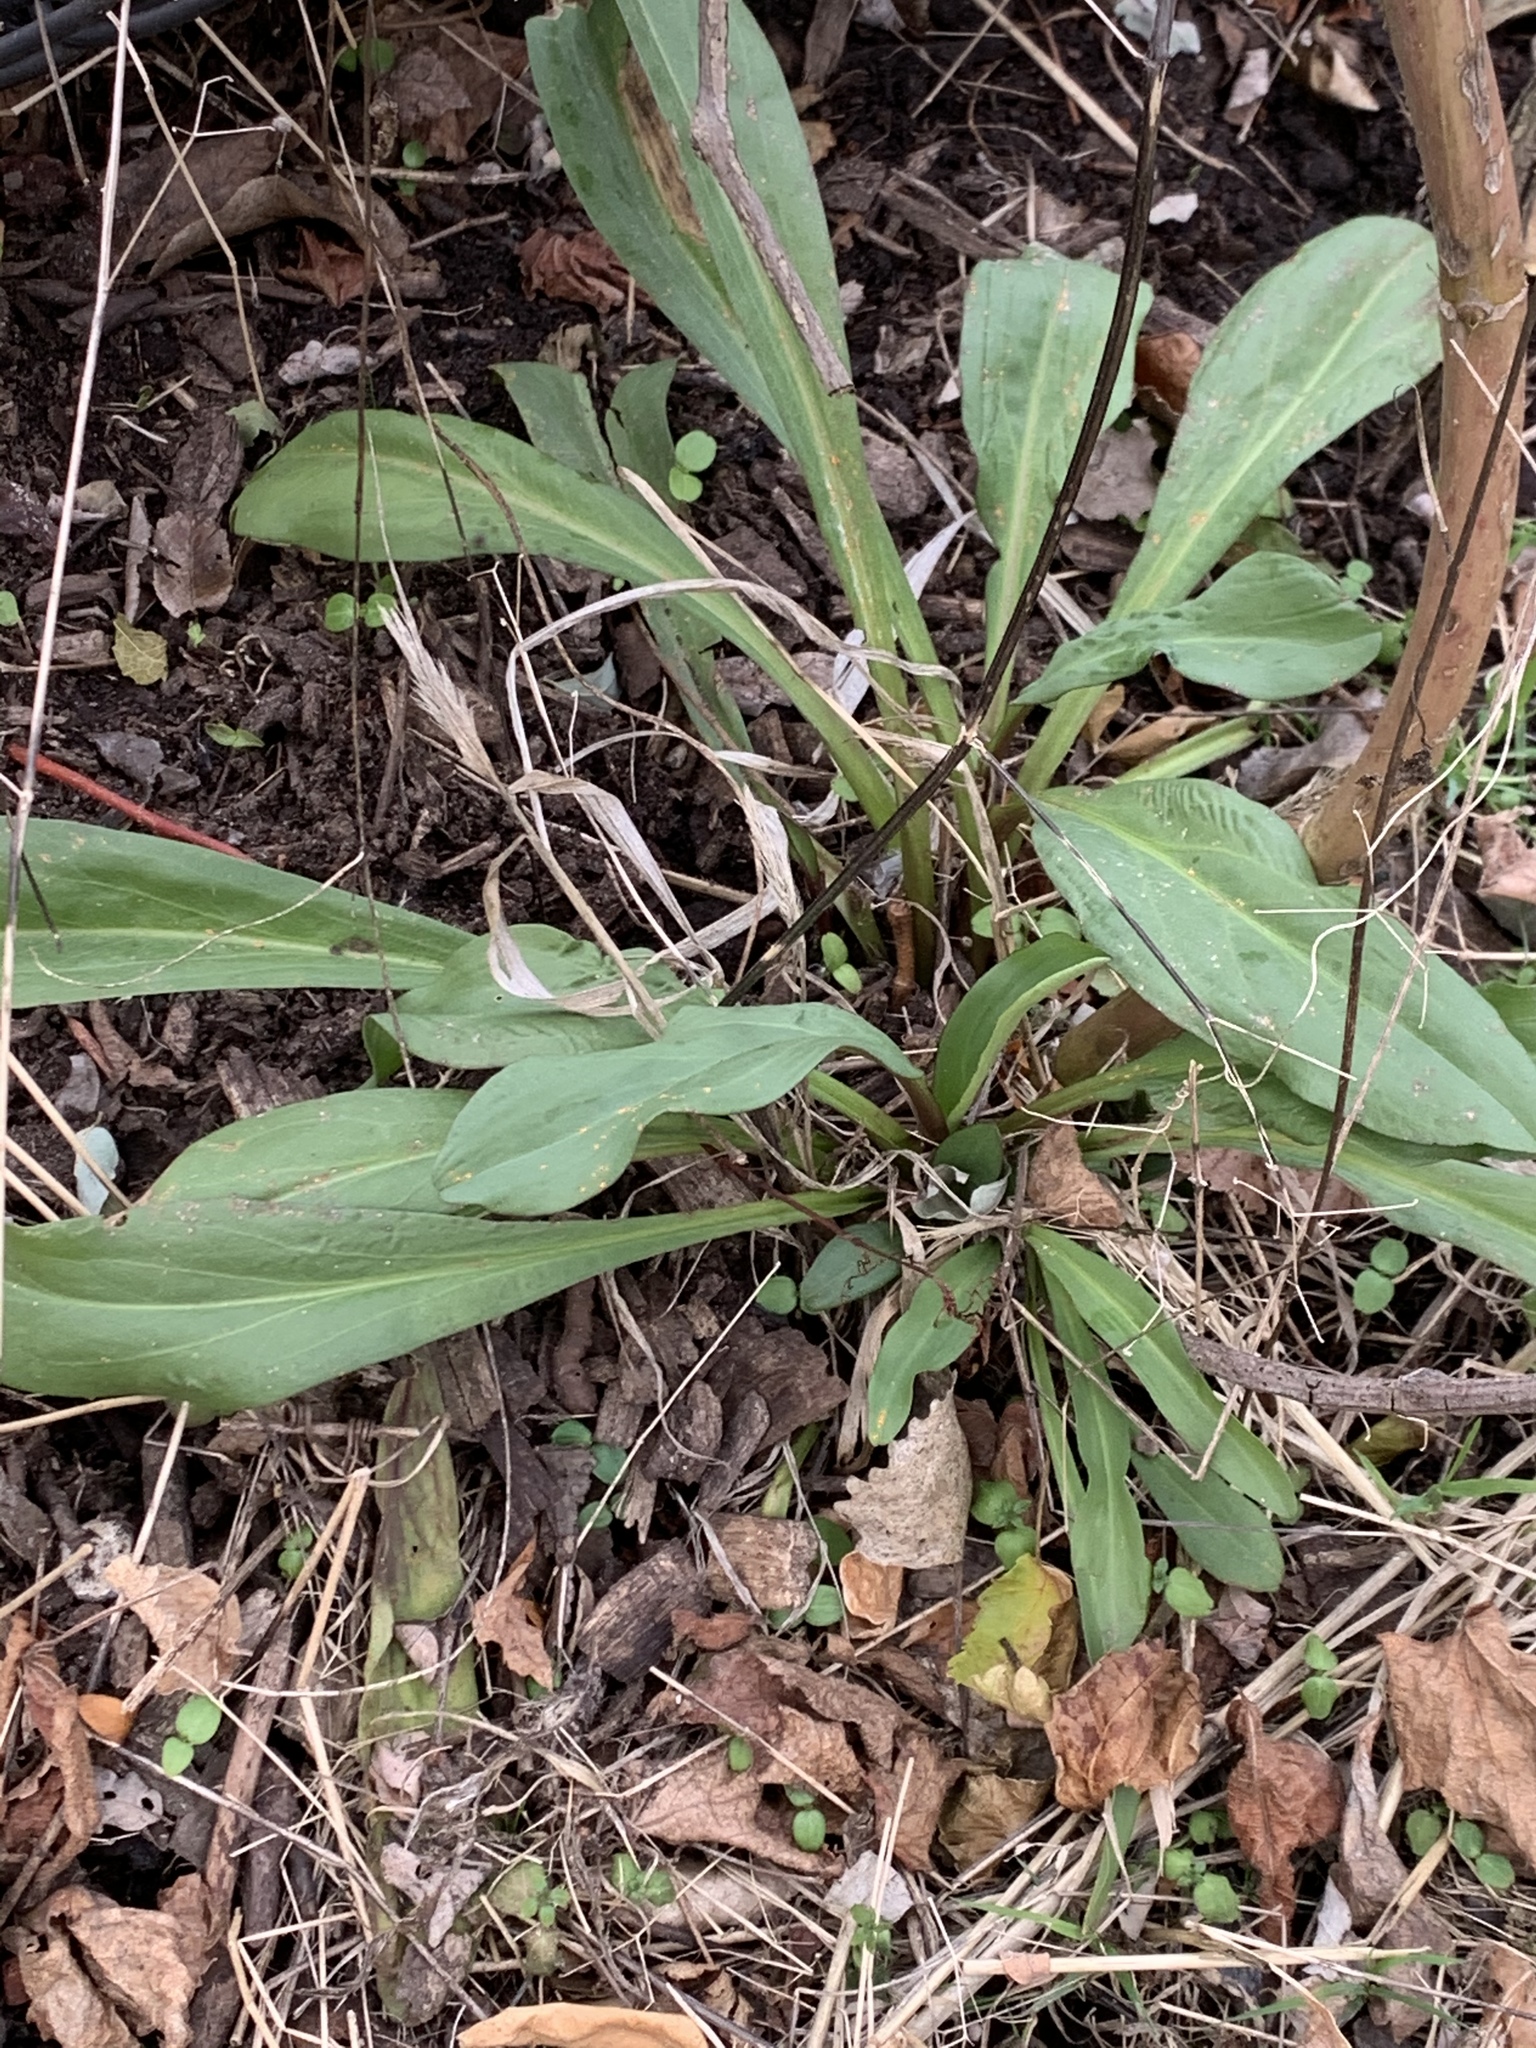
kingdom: Plantae
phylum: Tracheophyta
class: Magnoliopsida
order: Asterales
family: Asteraceae
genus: Solidago
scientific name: Solidago sempervirens
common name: Salt-marsh goldenrod
